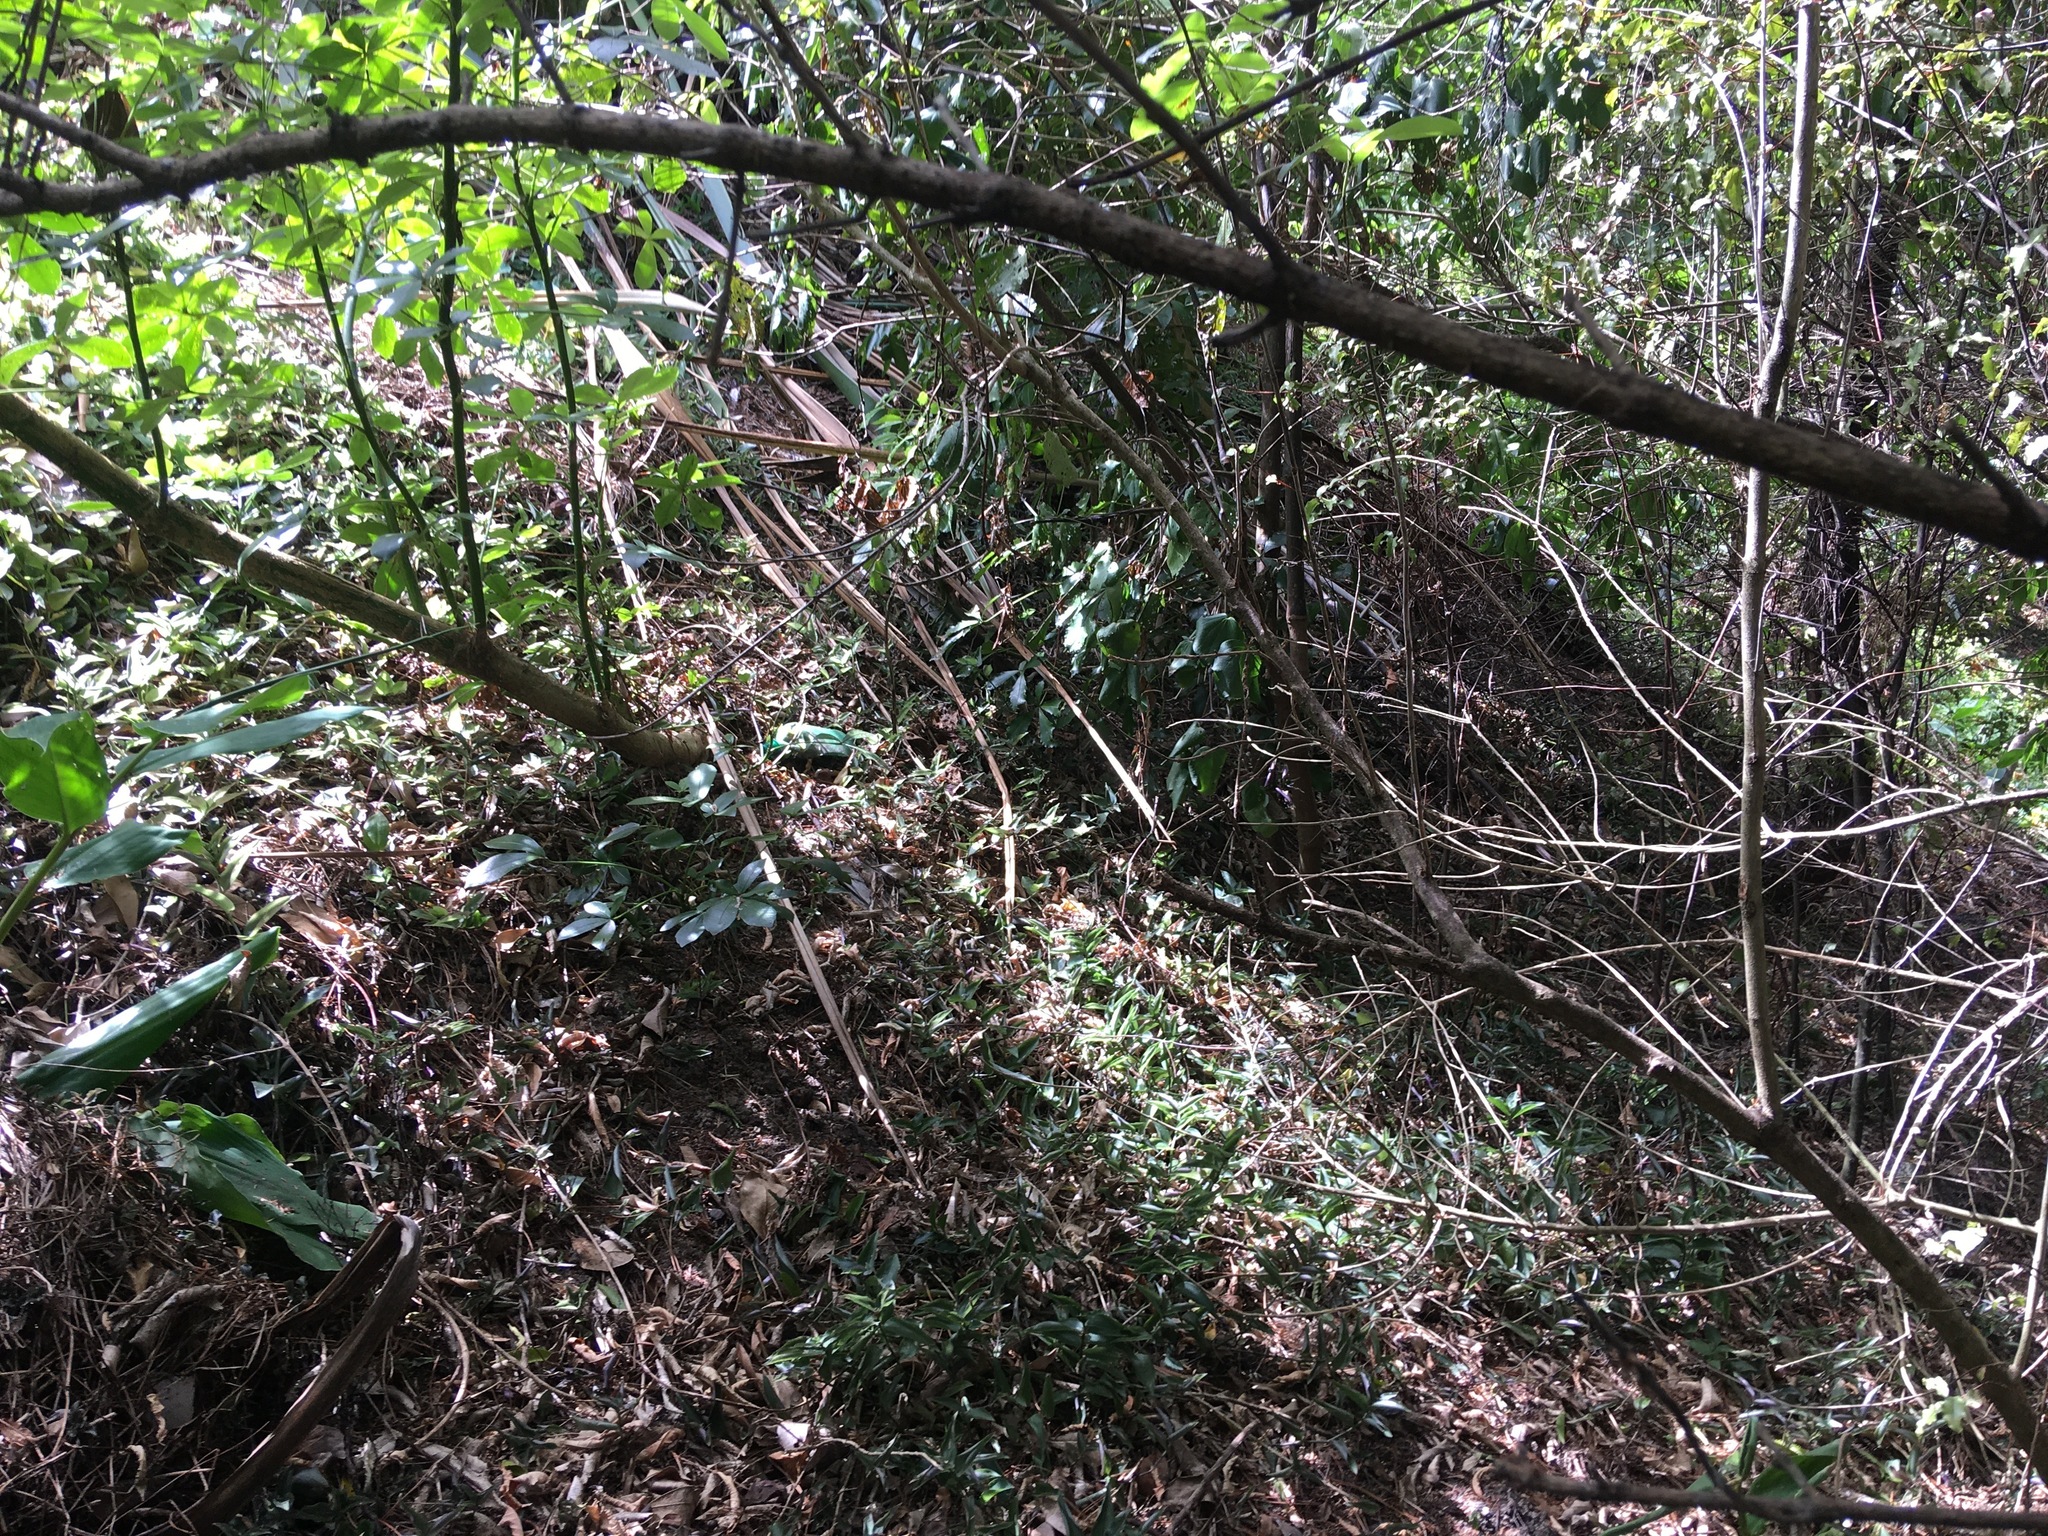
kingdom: Plantae
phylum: Tracheophyta
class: Magnoliopsida
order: Piperales
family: Piperaceae
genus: Macropiper
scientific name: Macropiper excelsum
